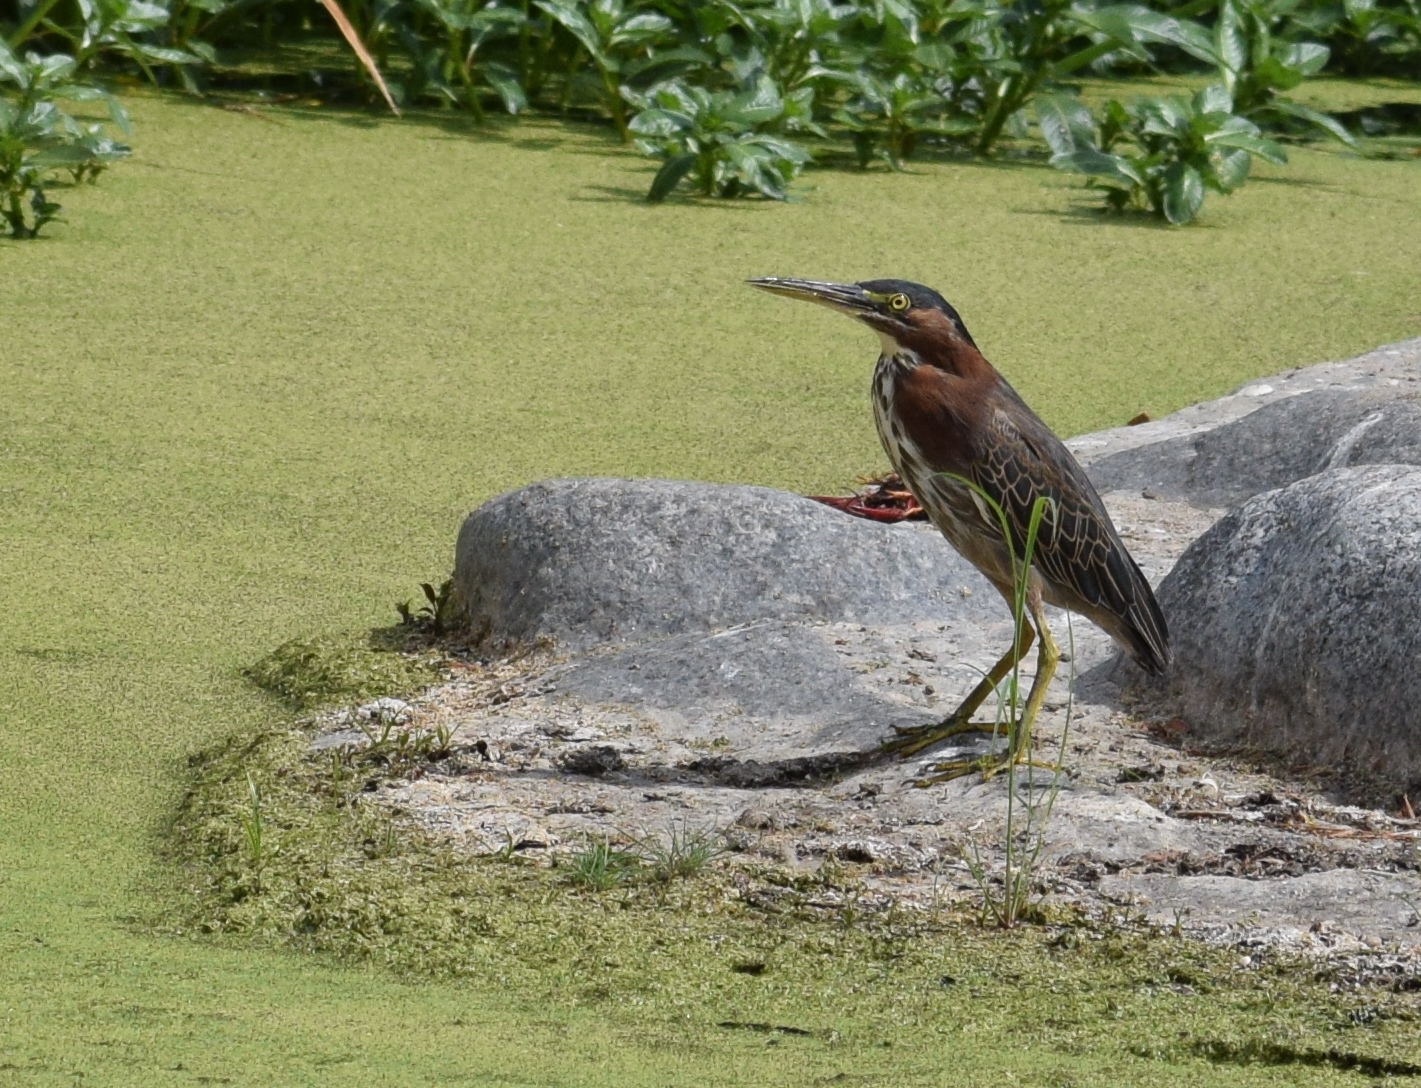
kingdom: Animalia
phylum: Chordata
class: Aves
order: Pelecaniformes
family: Ardeidae
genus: Butorides
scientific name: Butorides virescens
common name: Green heron
